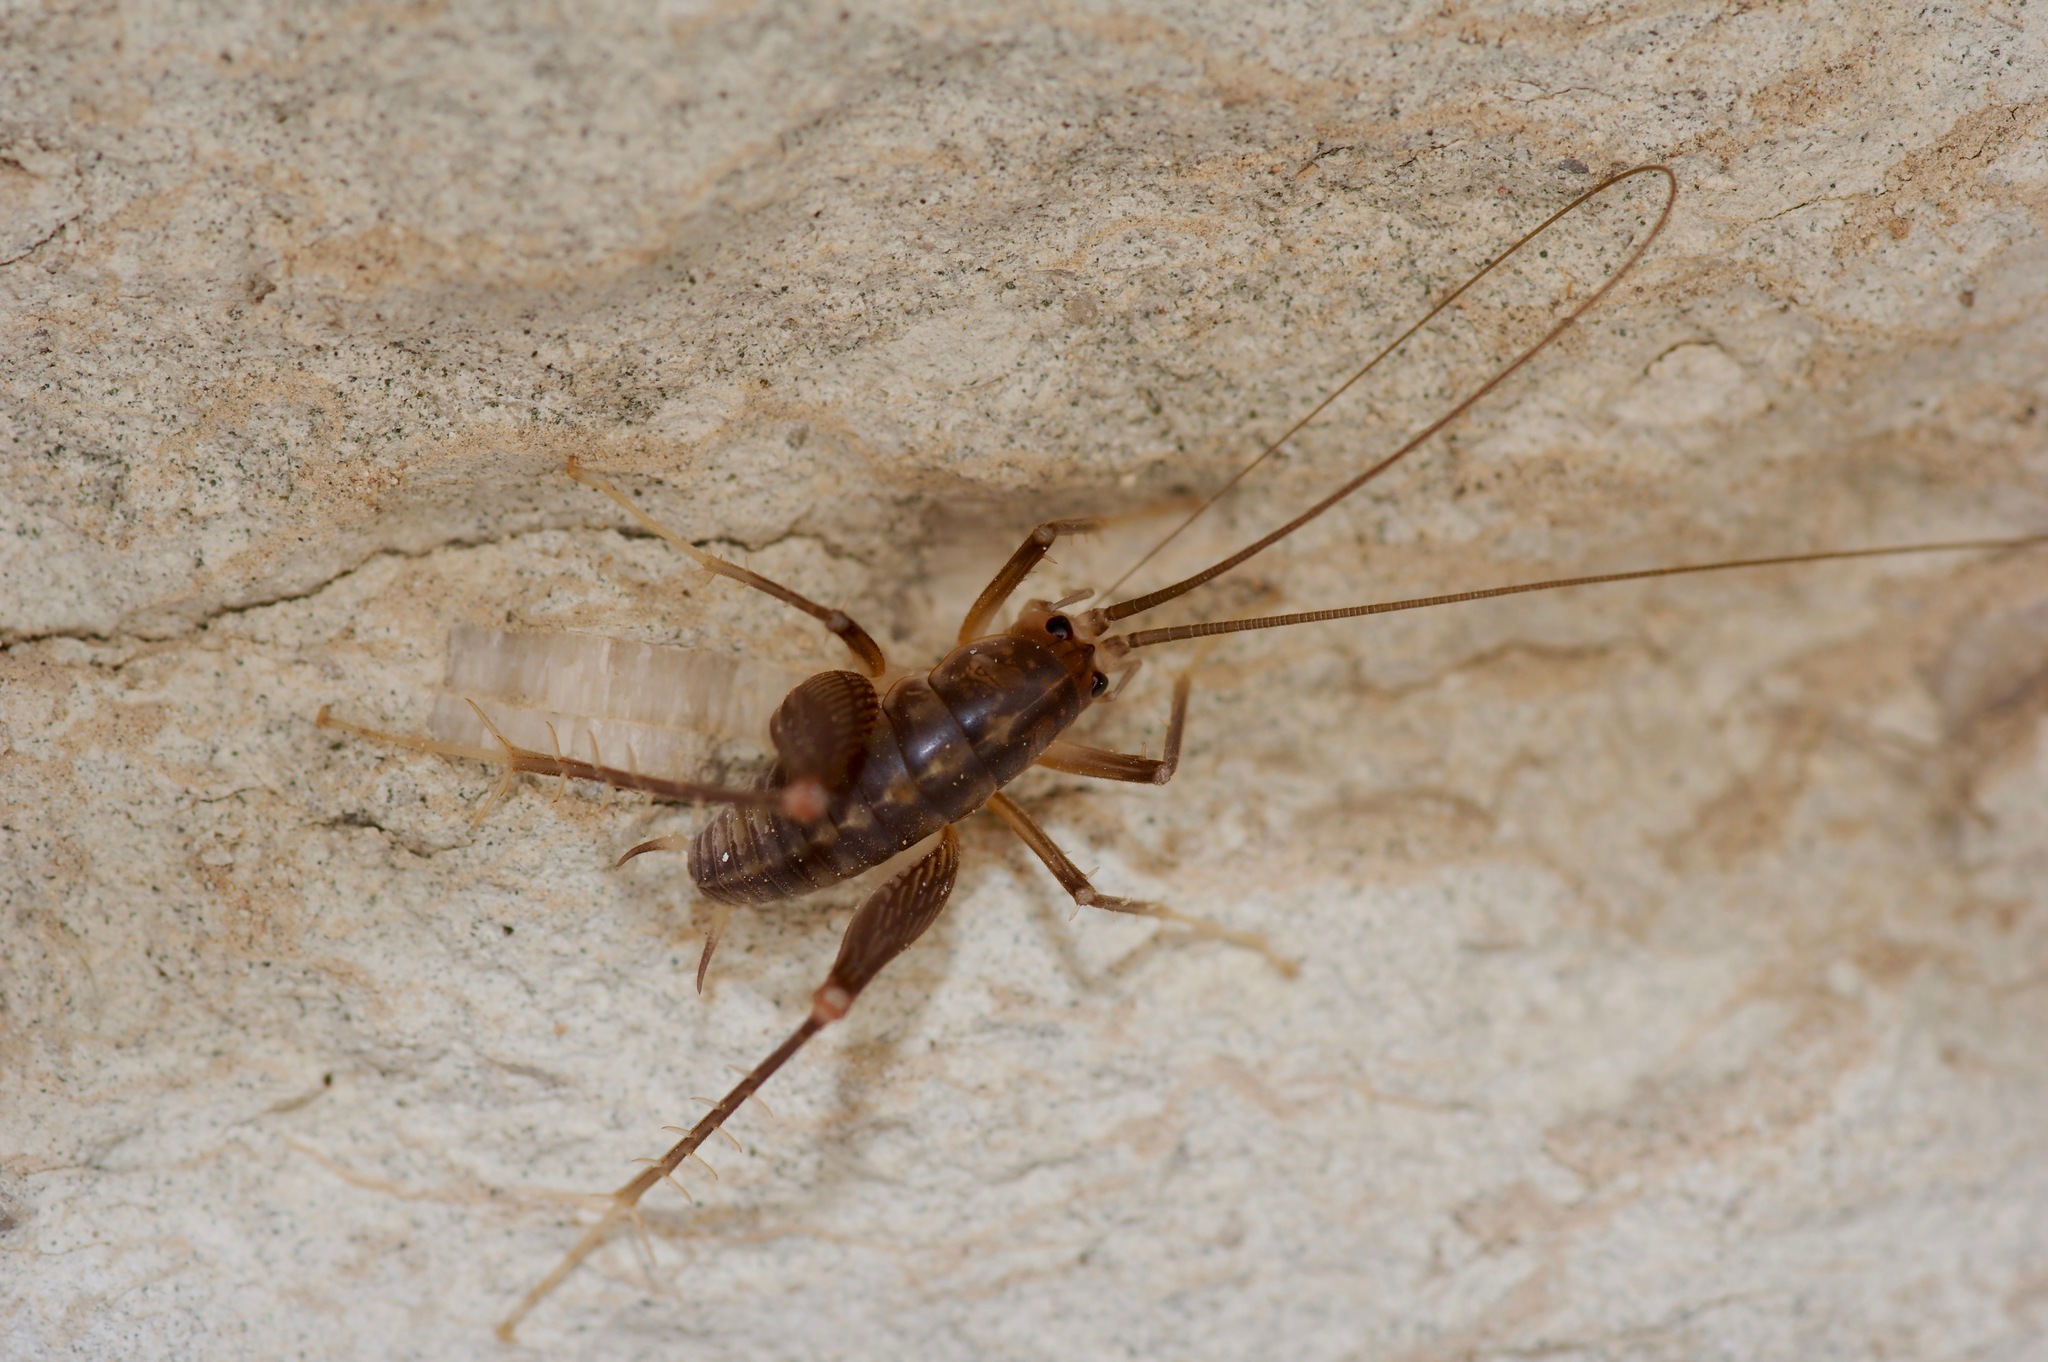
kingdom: Animalia
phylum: Arthropoda
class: Insecta
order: Orthoptera
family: Rhaphidophoridae
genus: Ceuthophilus
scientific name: Ceuthophilus secretus
